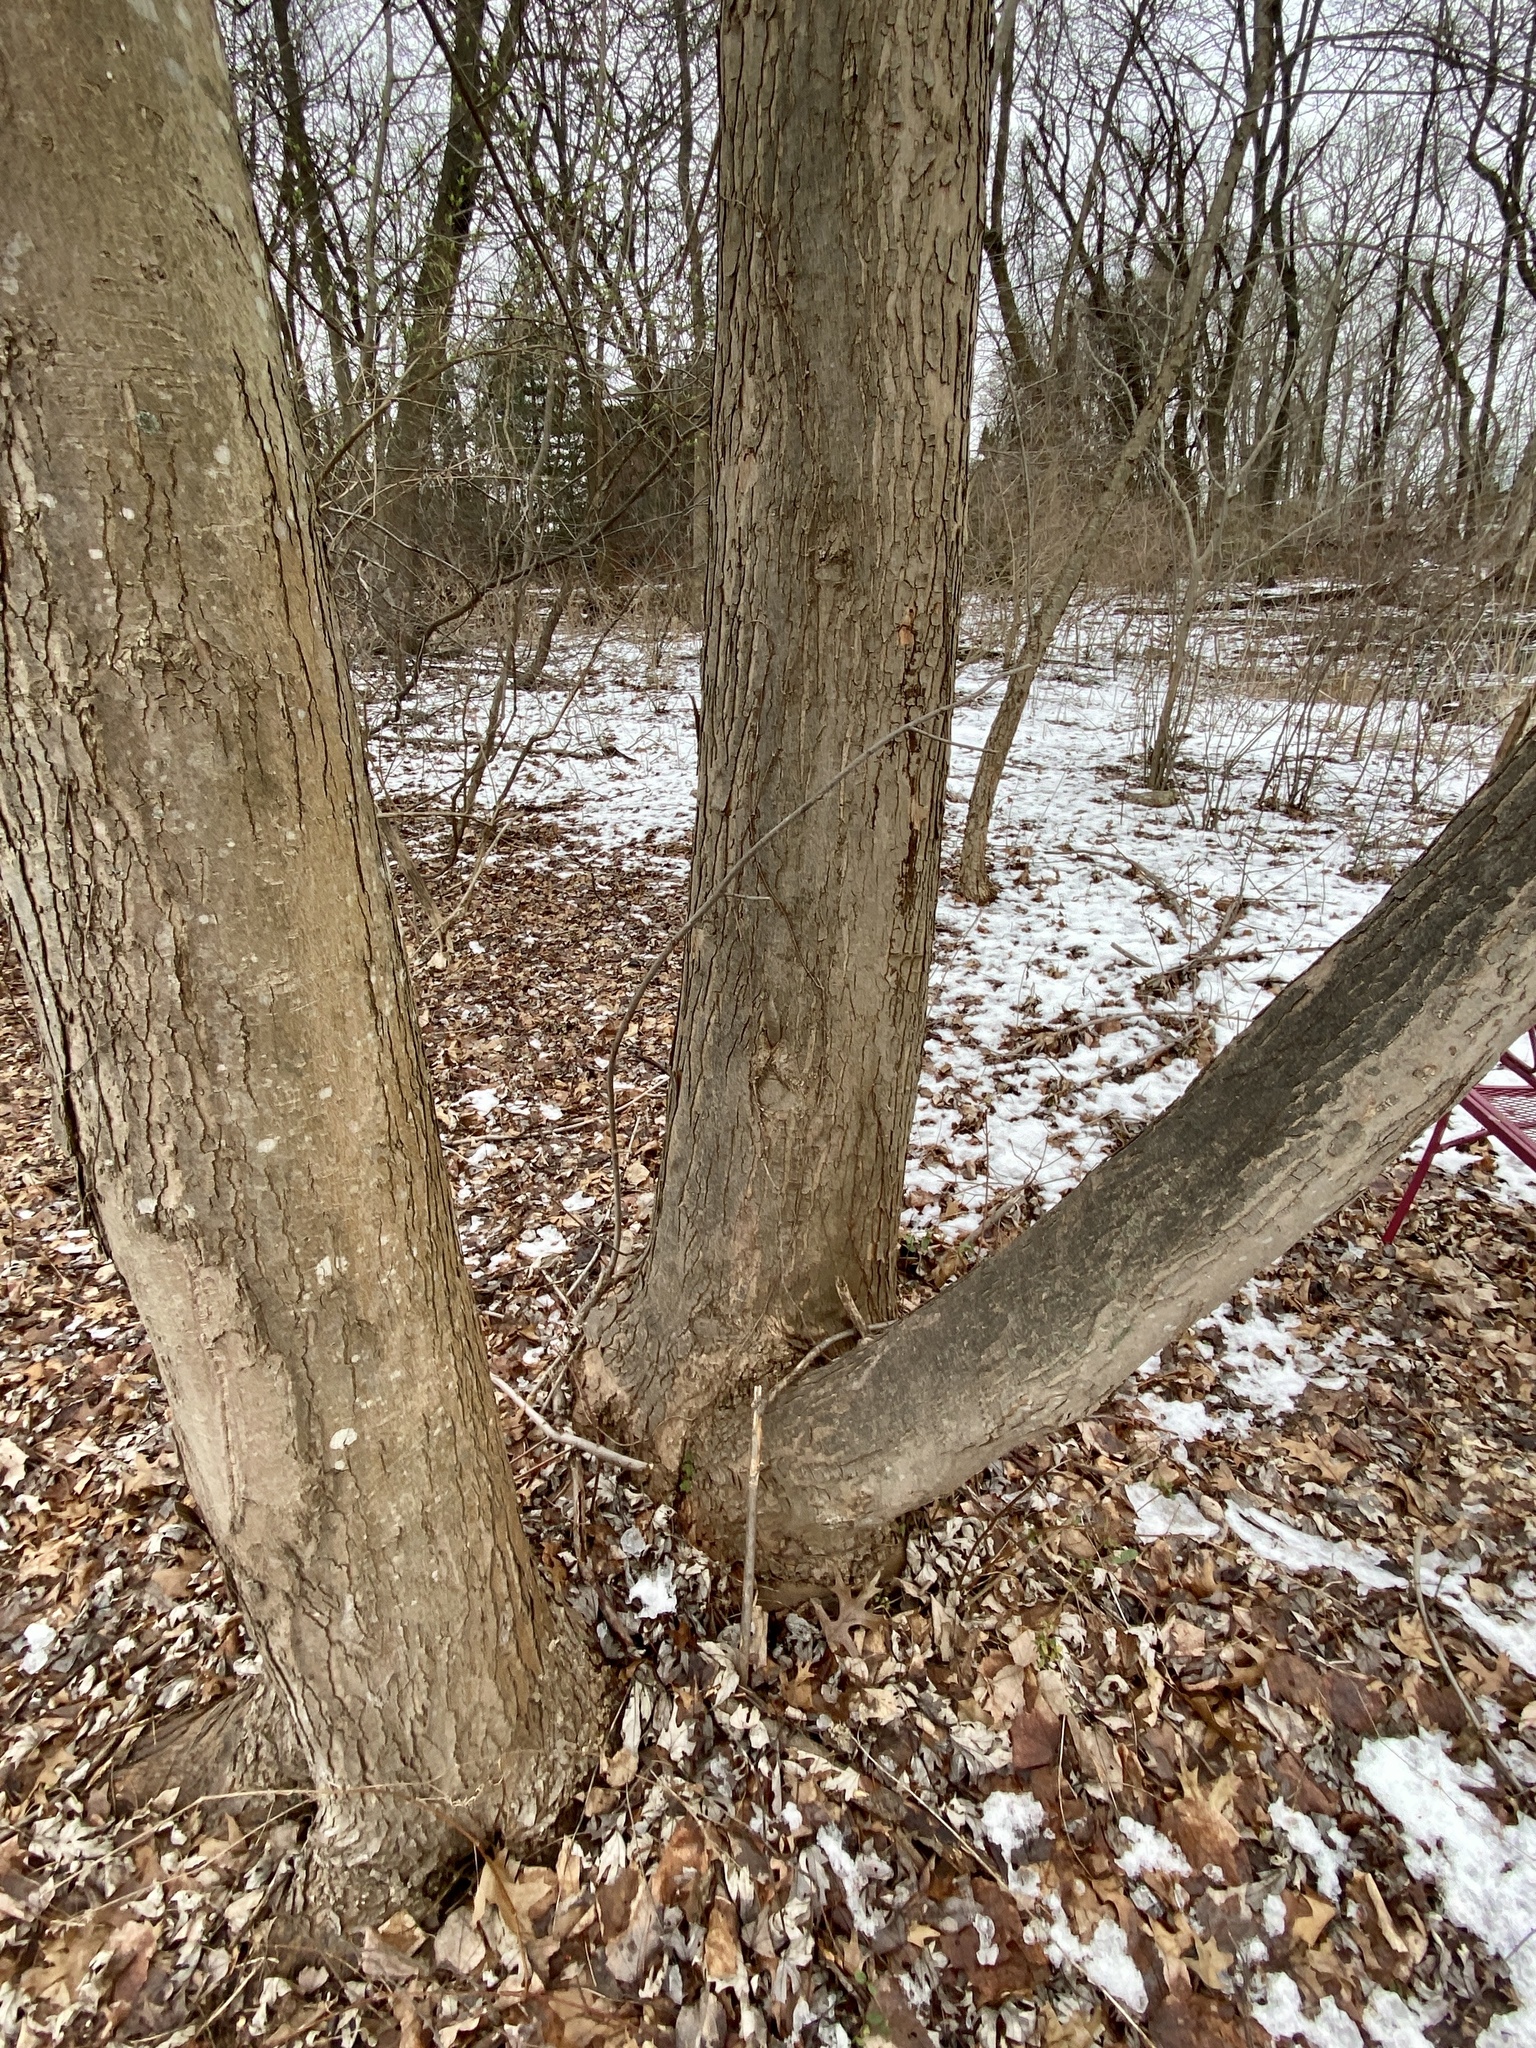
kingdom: Plantae
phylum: Tracheophyta
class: Magnoliopsida
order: Sapindales
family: Sapindaceae
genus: Acer
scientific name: Acer rubrum
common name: Red maple
